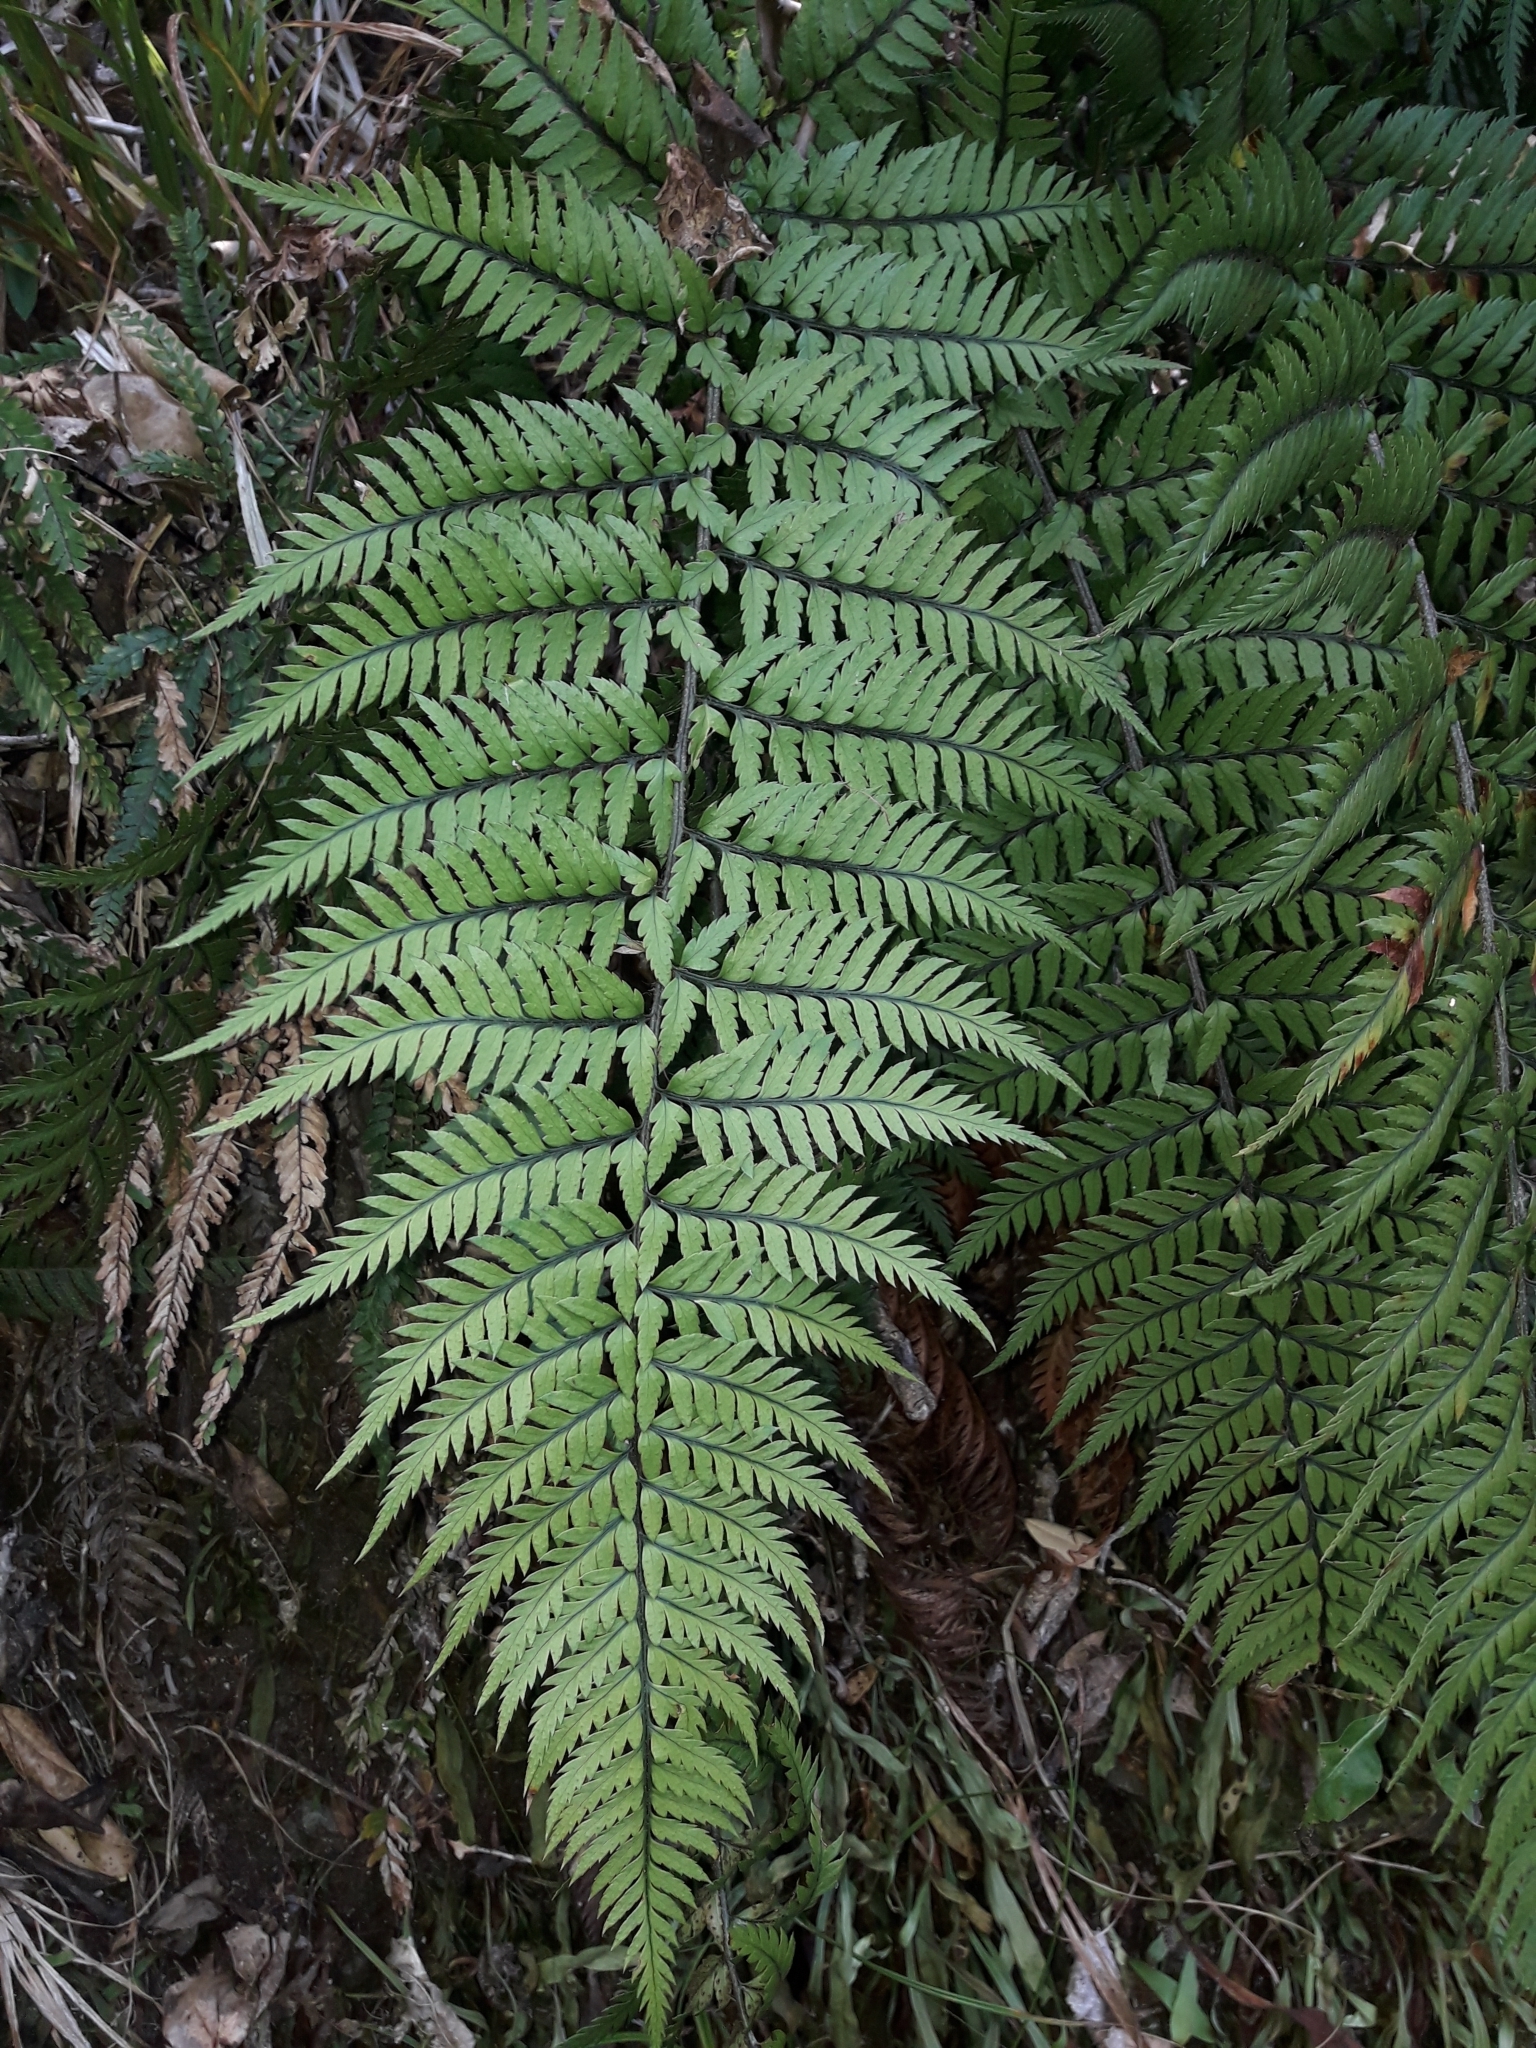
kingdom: Plantae
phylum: Tracheophyta
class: Polypodiopsida
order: Polypodiales
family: Dryopteridaceae
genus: Polystichum
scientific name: Polystichum neozelandicum
